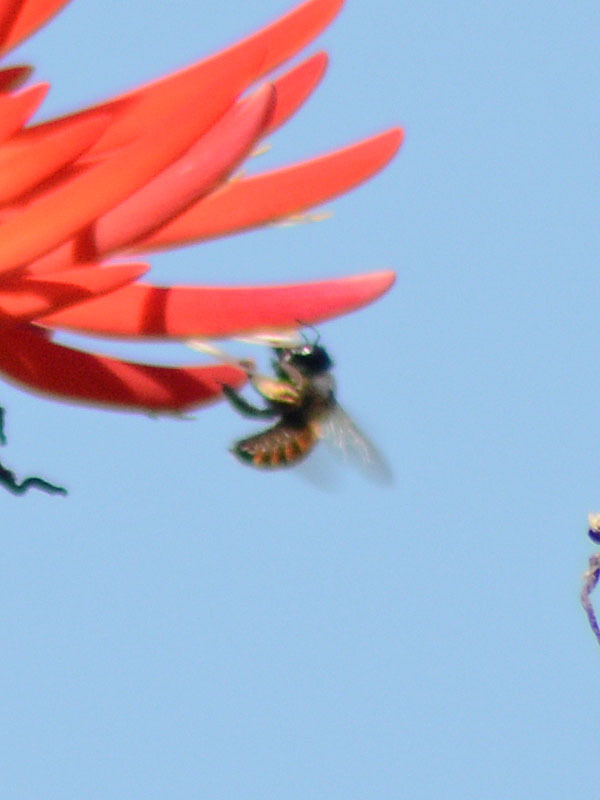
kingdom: Animalia
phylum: Arthropoda
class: Insecta
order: Hymenoptera
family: Apidae
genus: Apis
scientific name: Apis mellifera
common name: Honey bee
